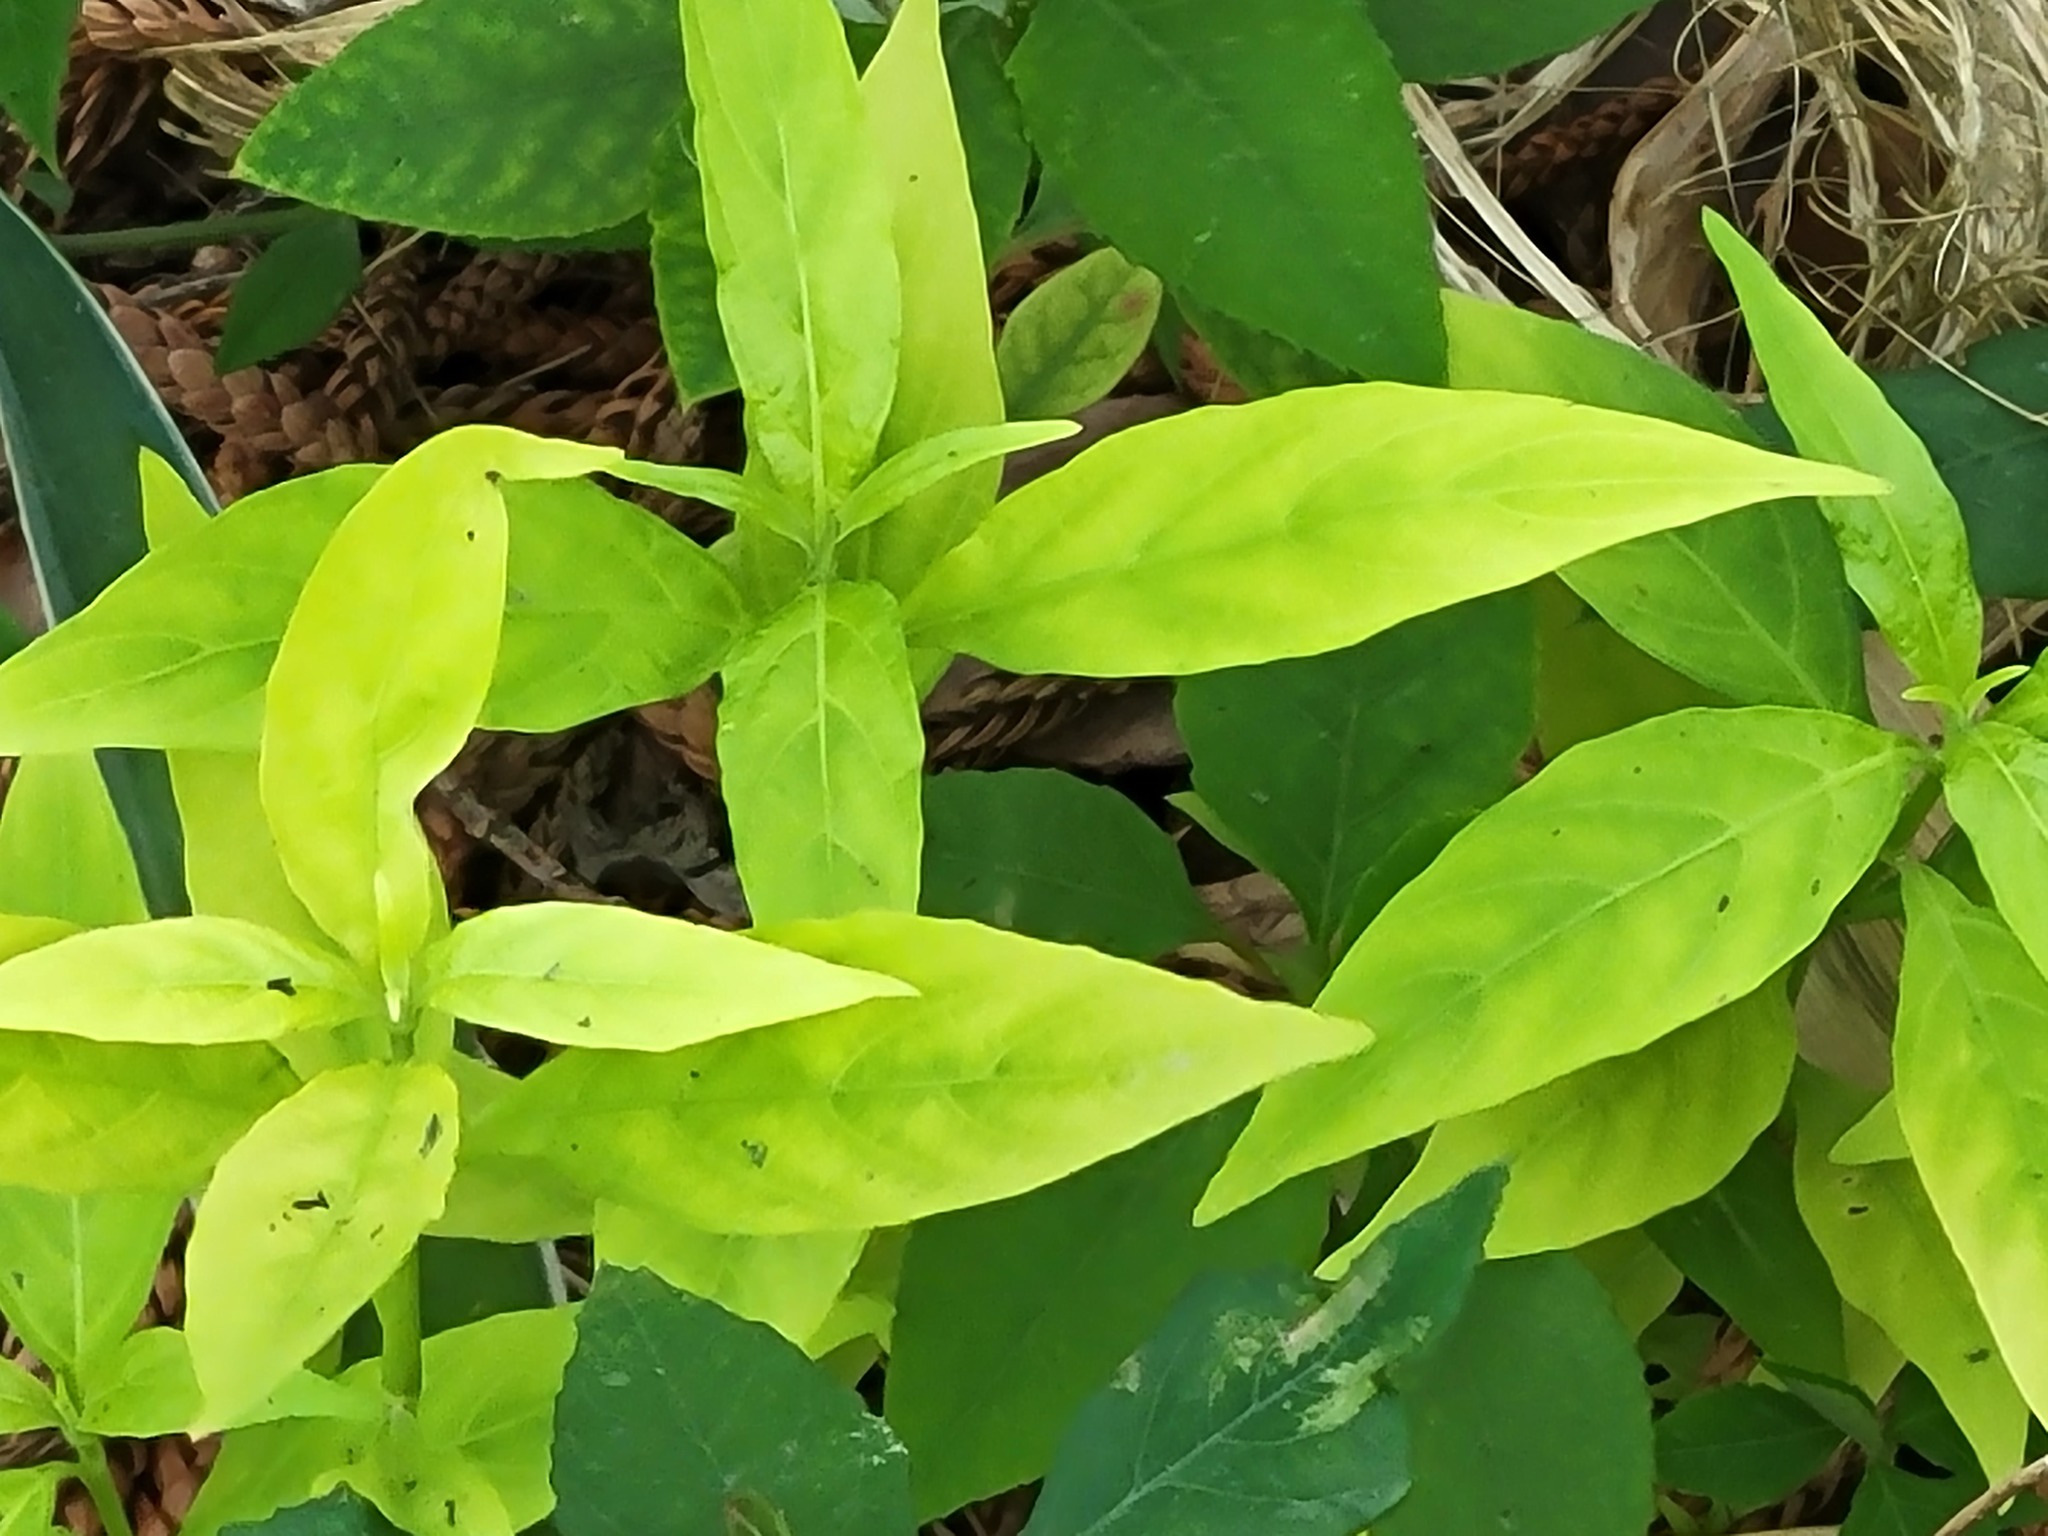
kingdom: Plantae
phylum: Tracheophyta
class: Magnoliopsida
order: Lamiales
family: Acanthaceae
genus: Justicia
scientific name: Justicia runyonii
